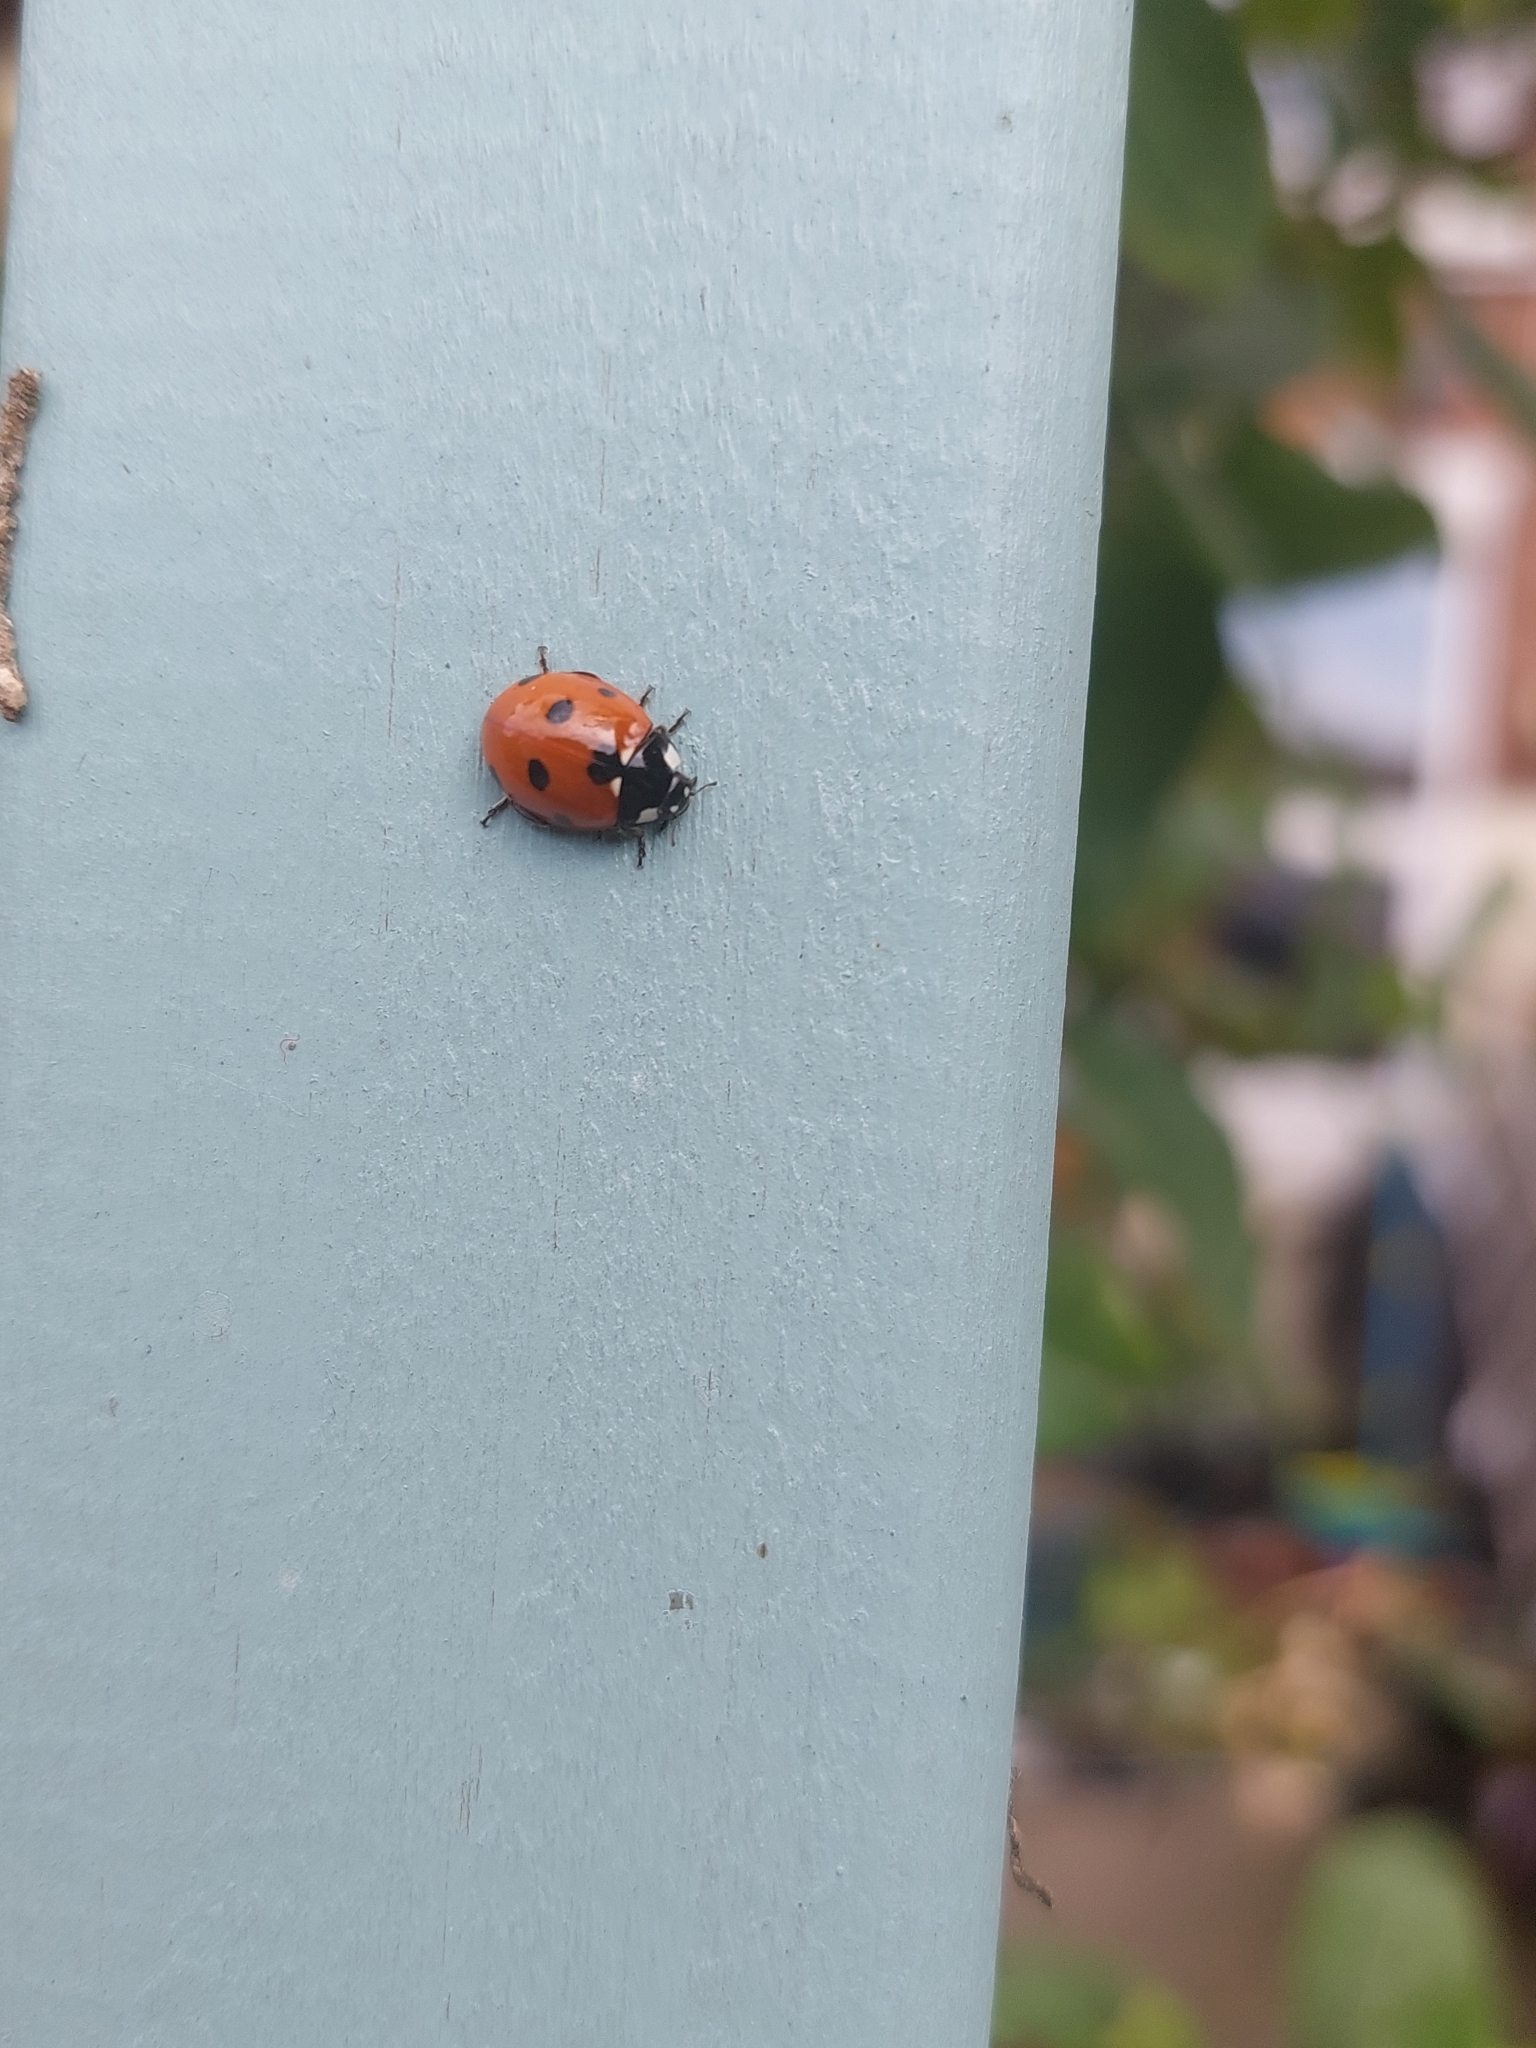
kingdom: Animalia
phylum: Arthropoda
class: Insecta
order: Coleoptera
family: Coccinellidae
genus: Coccinella
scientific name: Coccinella septempunctata
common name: Sevenspotted lady beetle
